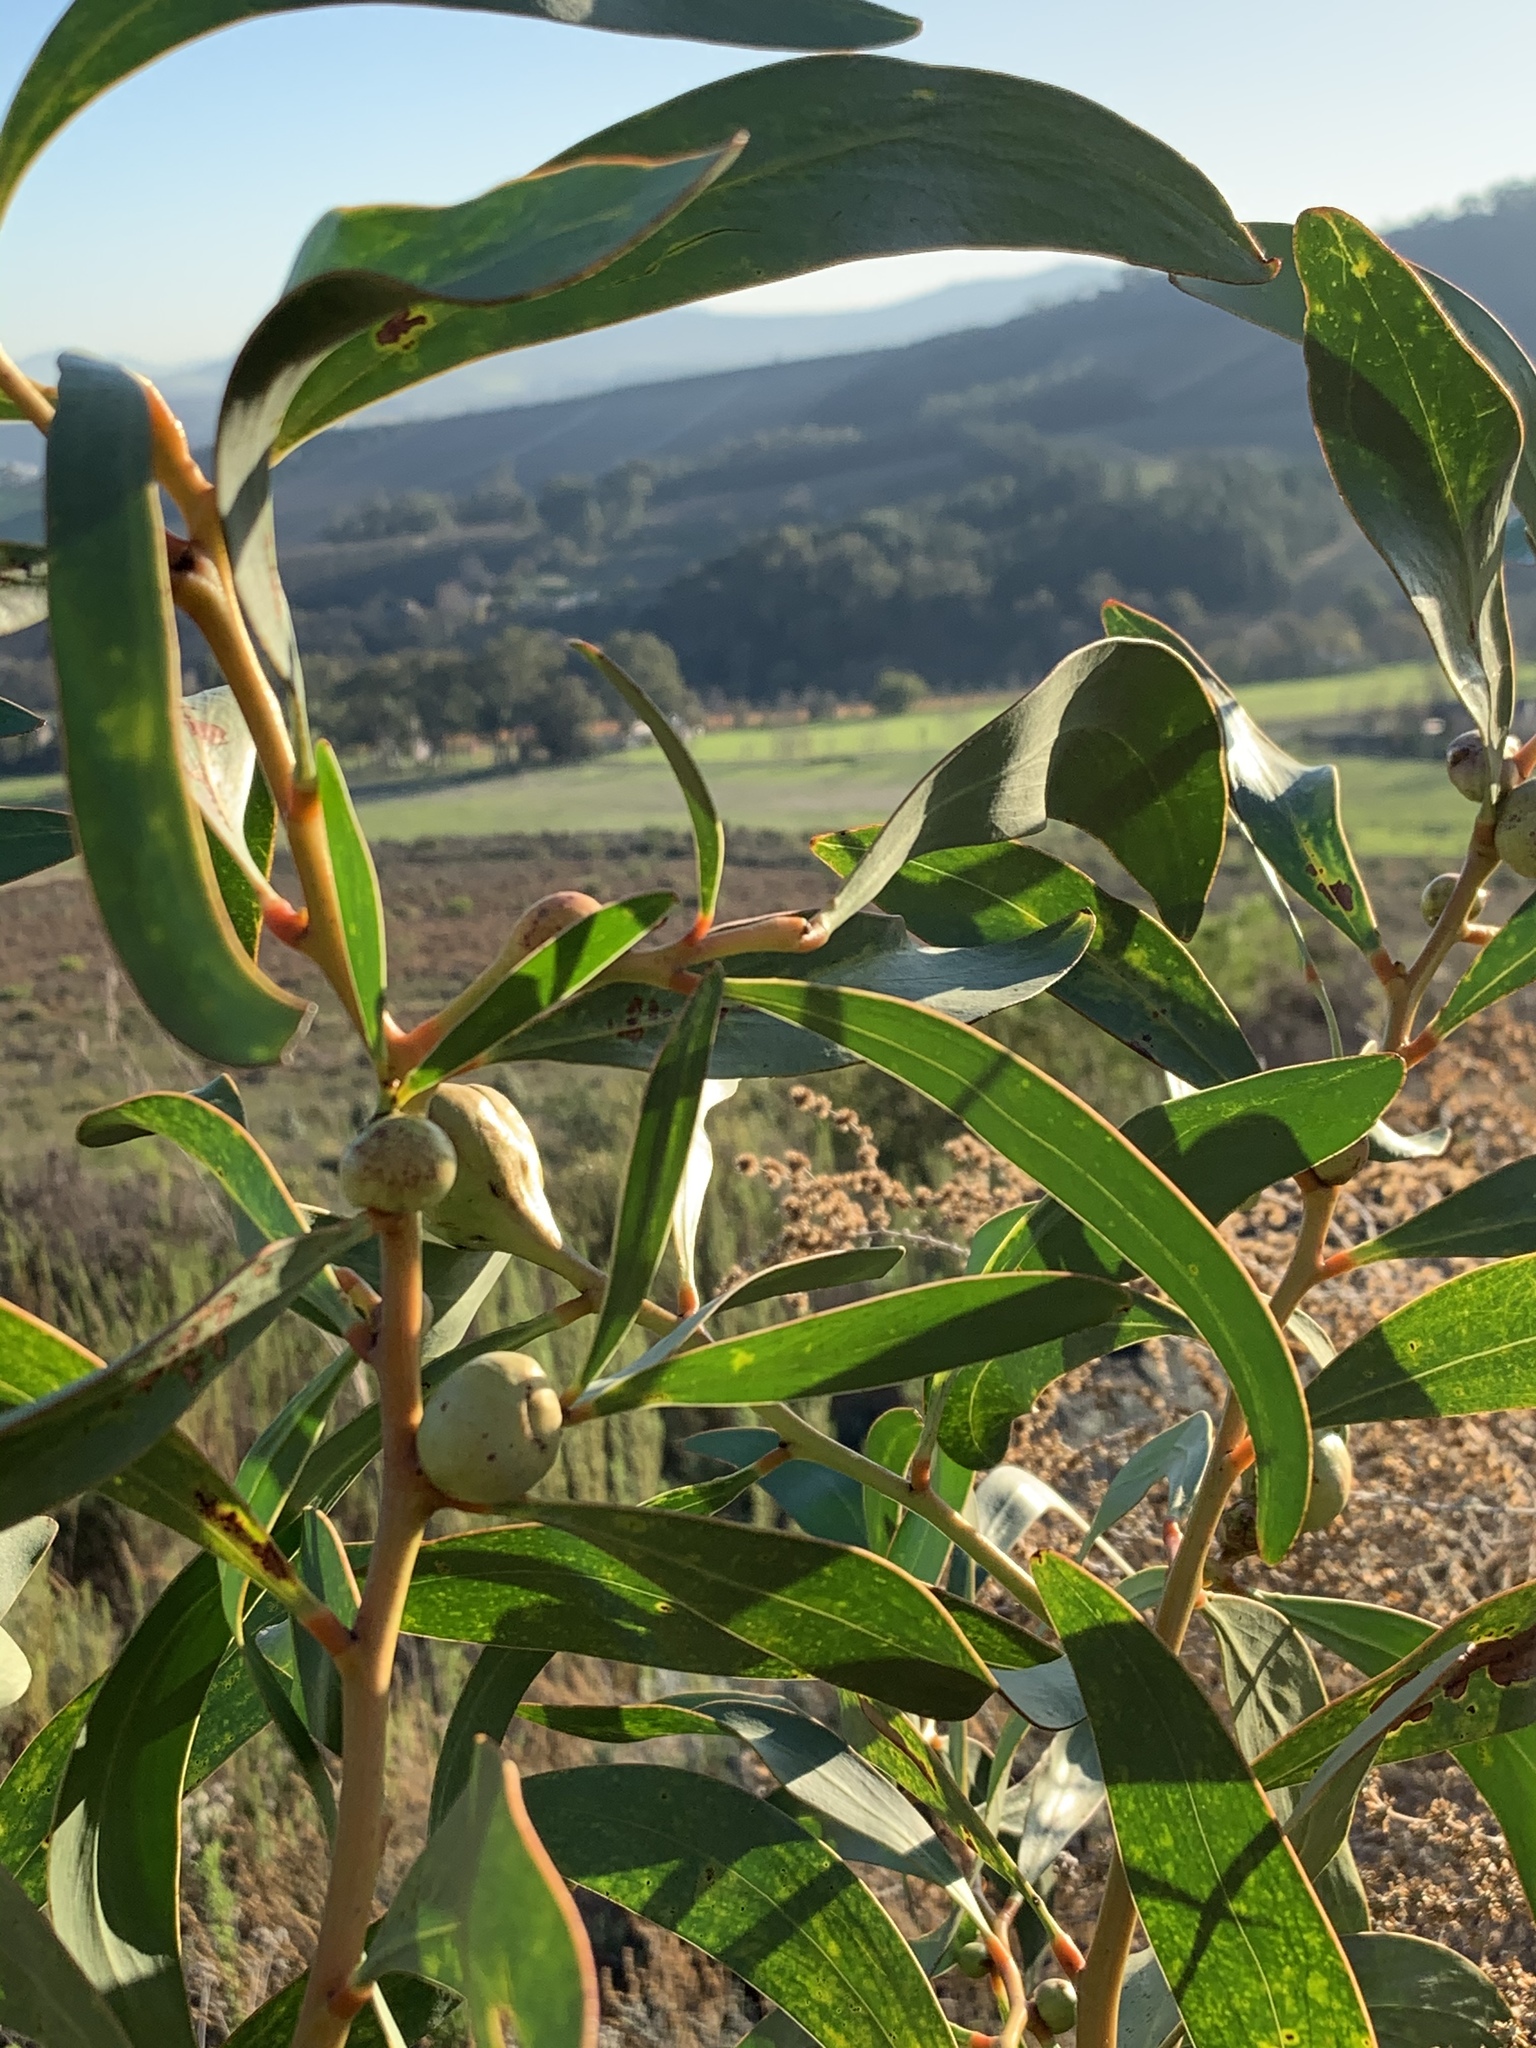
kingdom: Plantae
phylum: Tracheophyta
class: Magnoliopsida
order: Fabales
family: Fabaceae
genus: Acacia
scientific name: Acacia pycnantha
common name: Golden wattle
